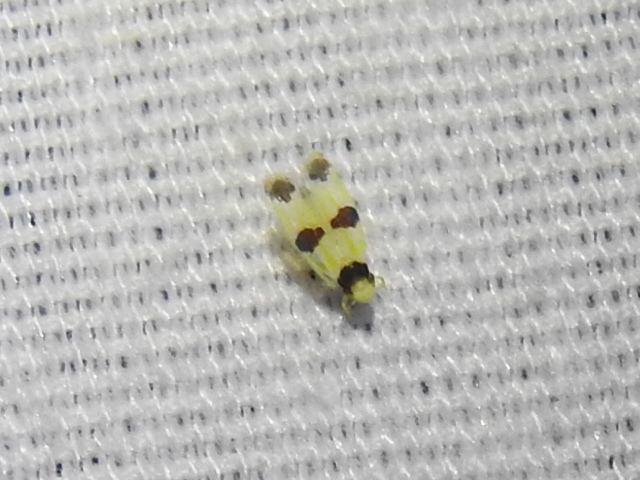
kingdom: Animalia
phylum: Arthropoda
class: Insecta
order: Hemiptera
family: Cicadellidae
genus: Erythroneura
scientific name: Erythroneura tricincta
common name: The threebanded grape leafhopper
